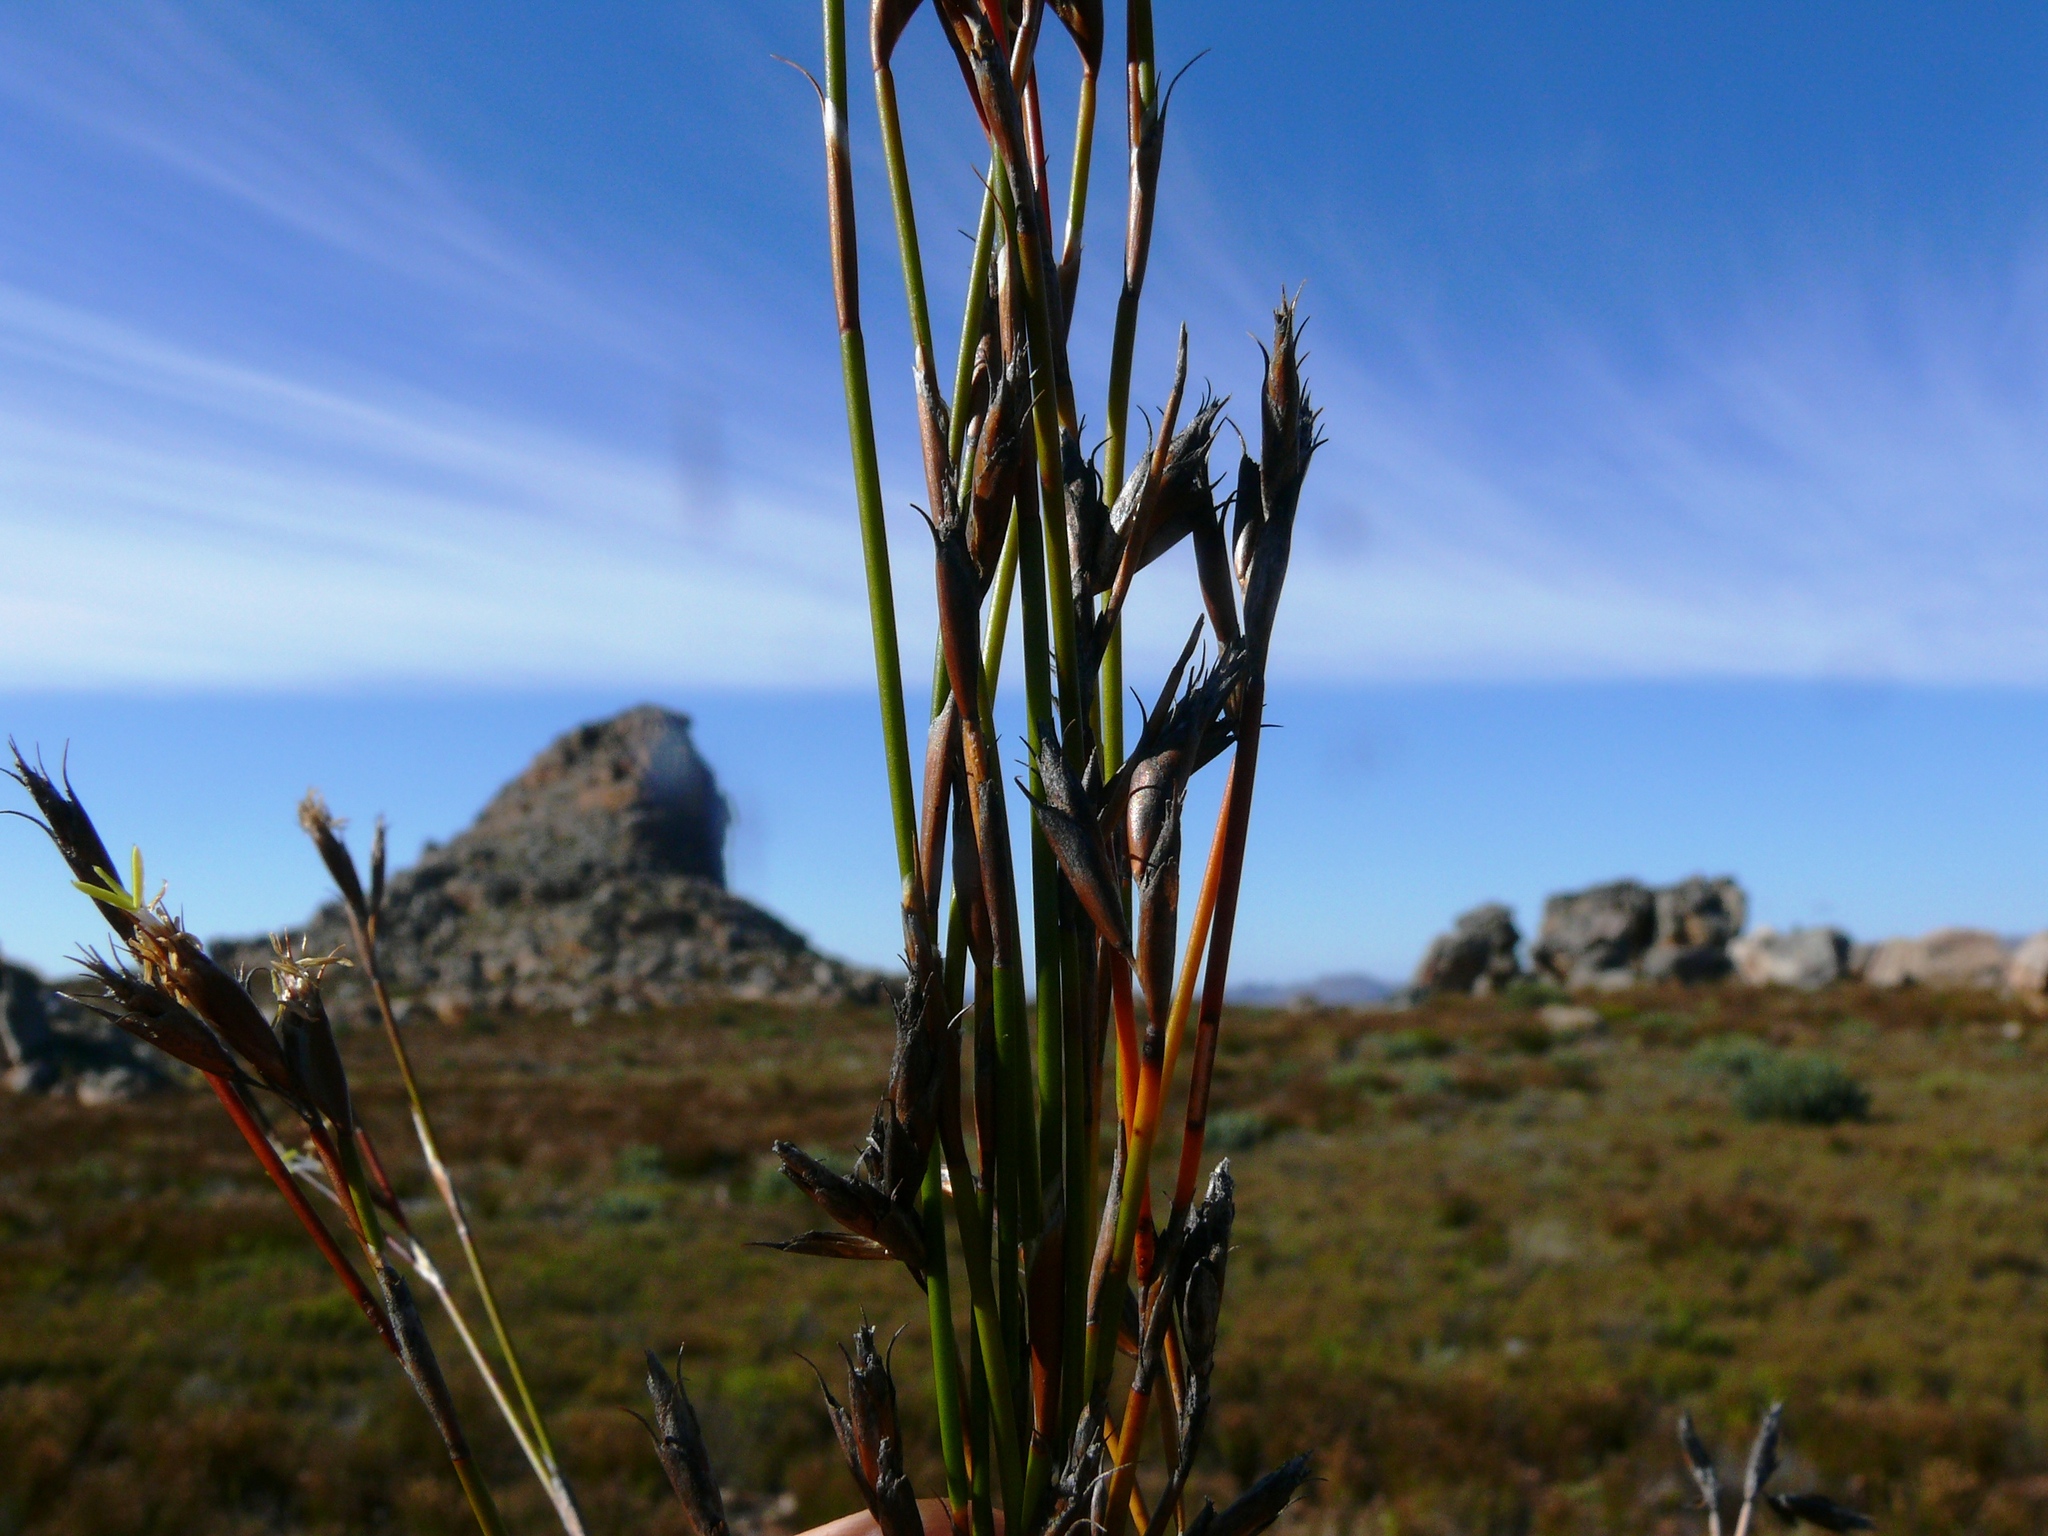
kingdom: Plantae
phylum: Tracheophyta
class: Liliopsida
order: Poales
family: Restionaceae
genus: Restio
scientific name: Restio virgeus
